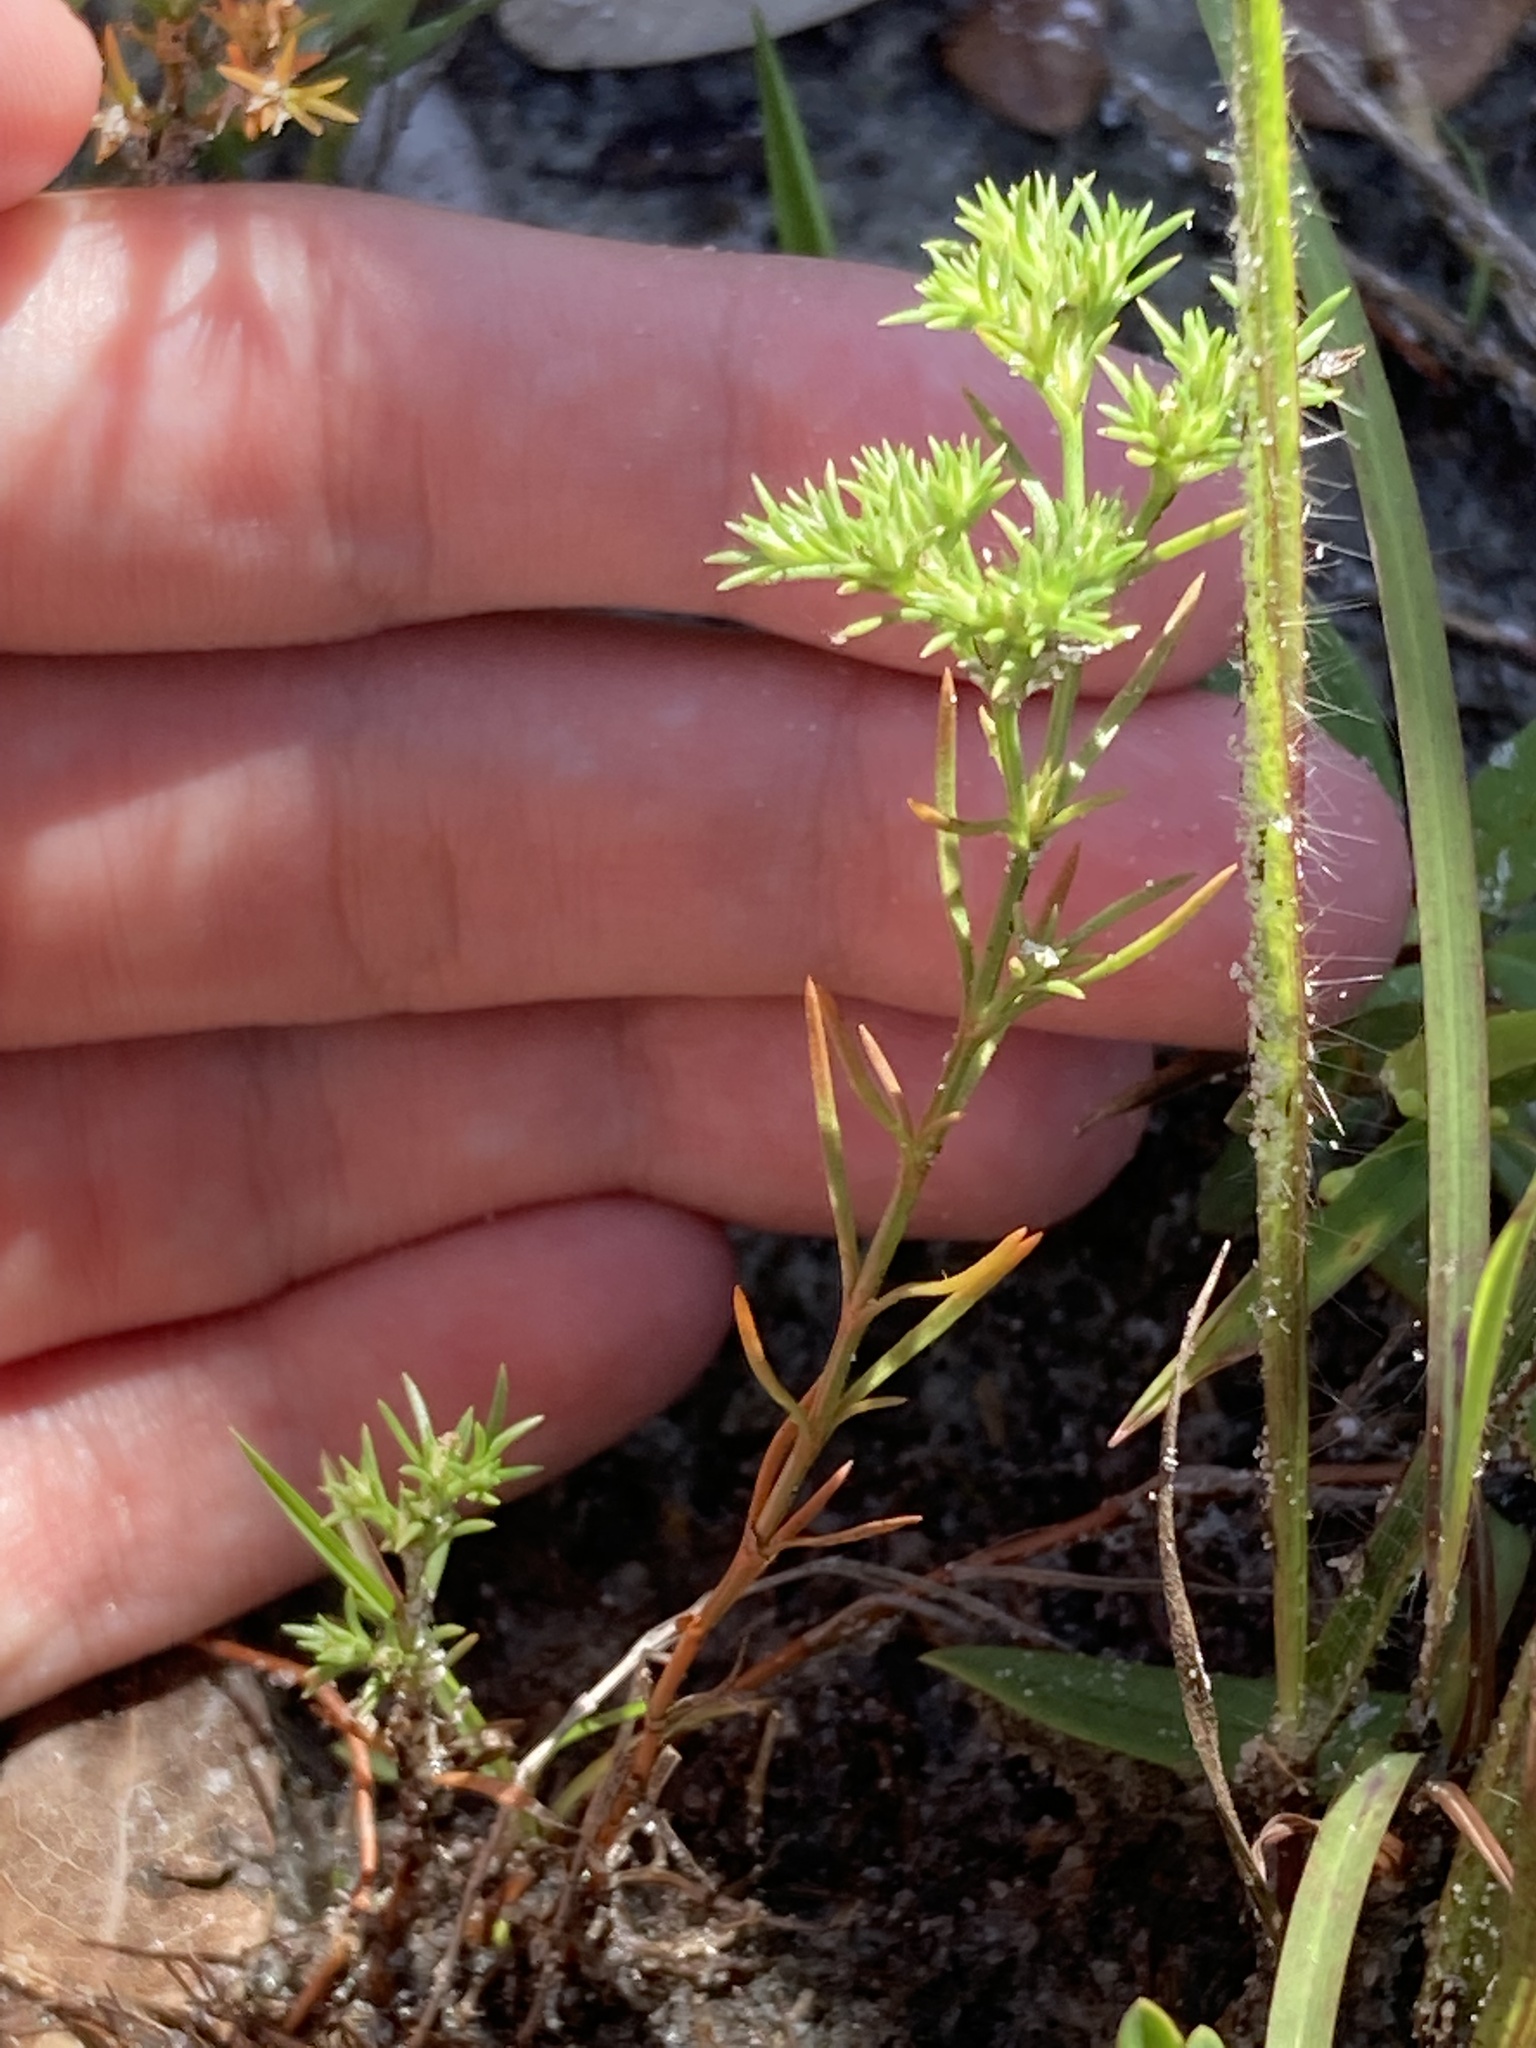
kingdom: Plantae
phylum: Tracheophyta
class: Magnoliopsida
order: Lamiales
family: Tetrachondraceae
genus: Polypremum
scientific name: Polypremum procumbens
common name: Juniper-leaf
